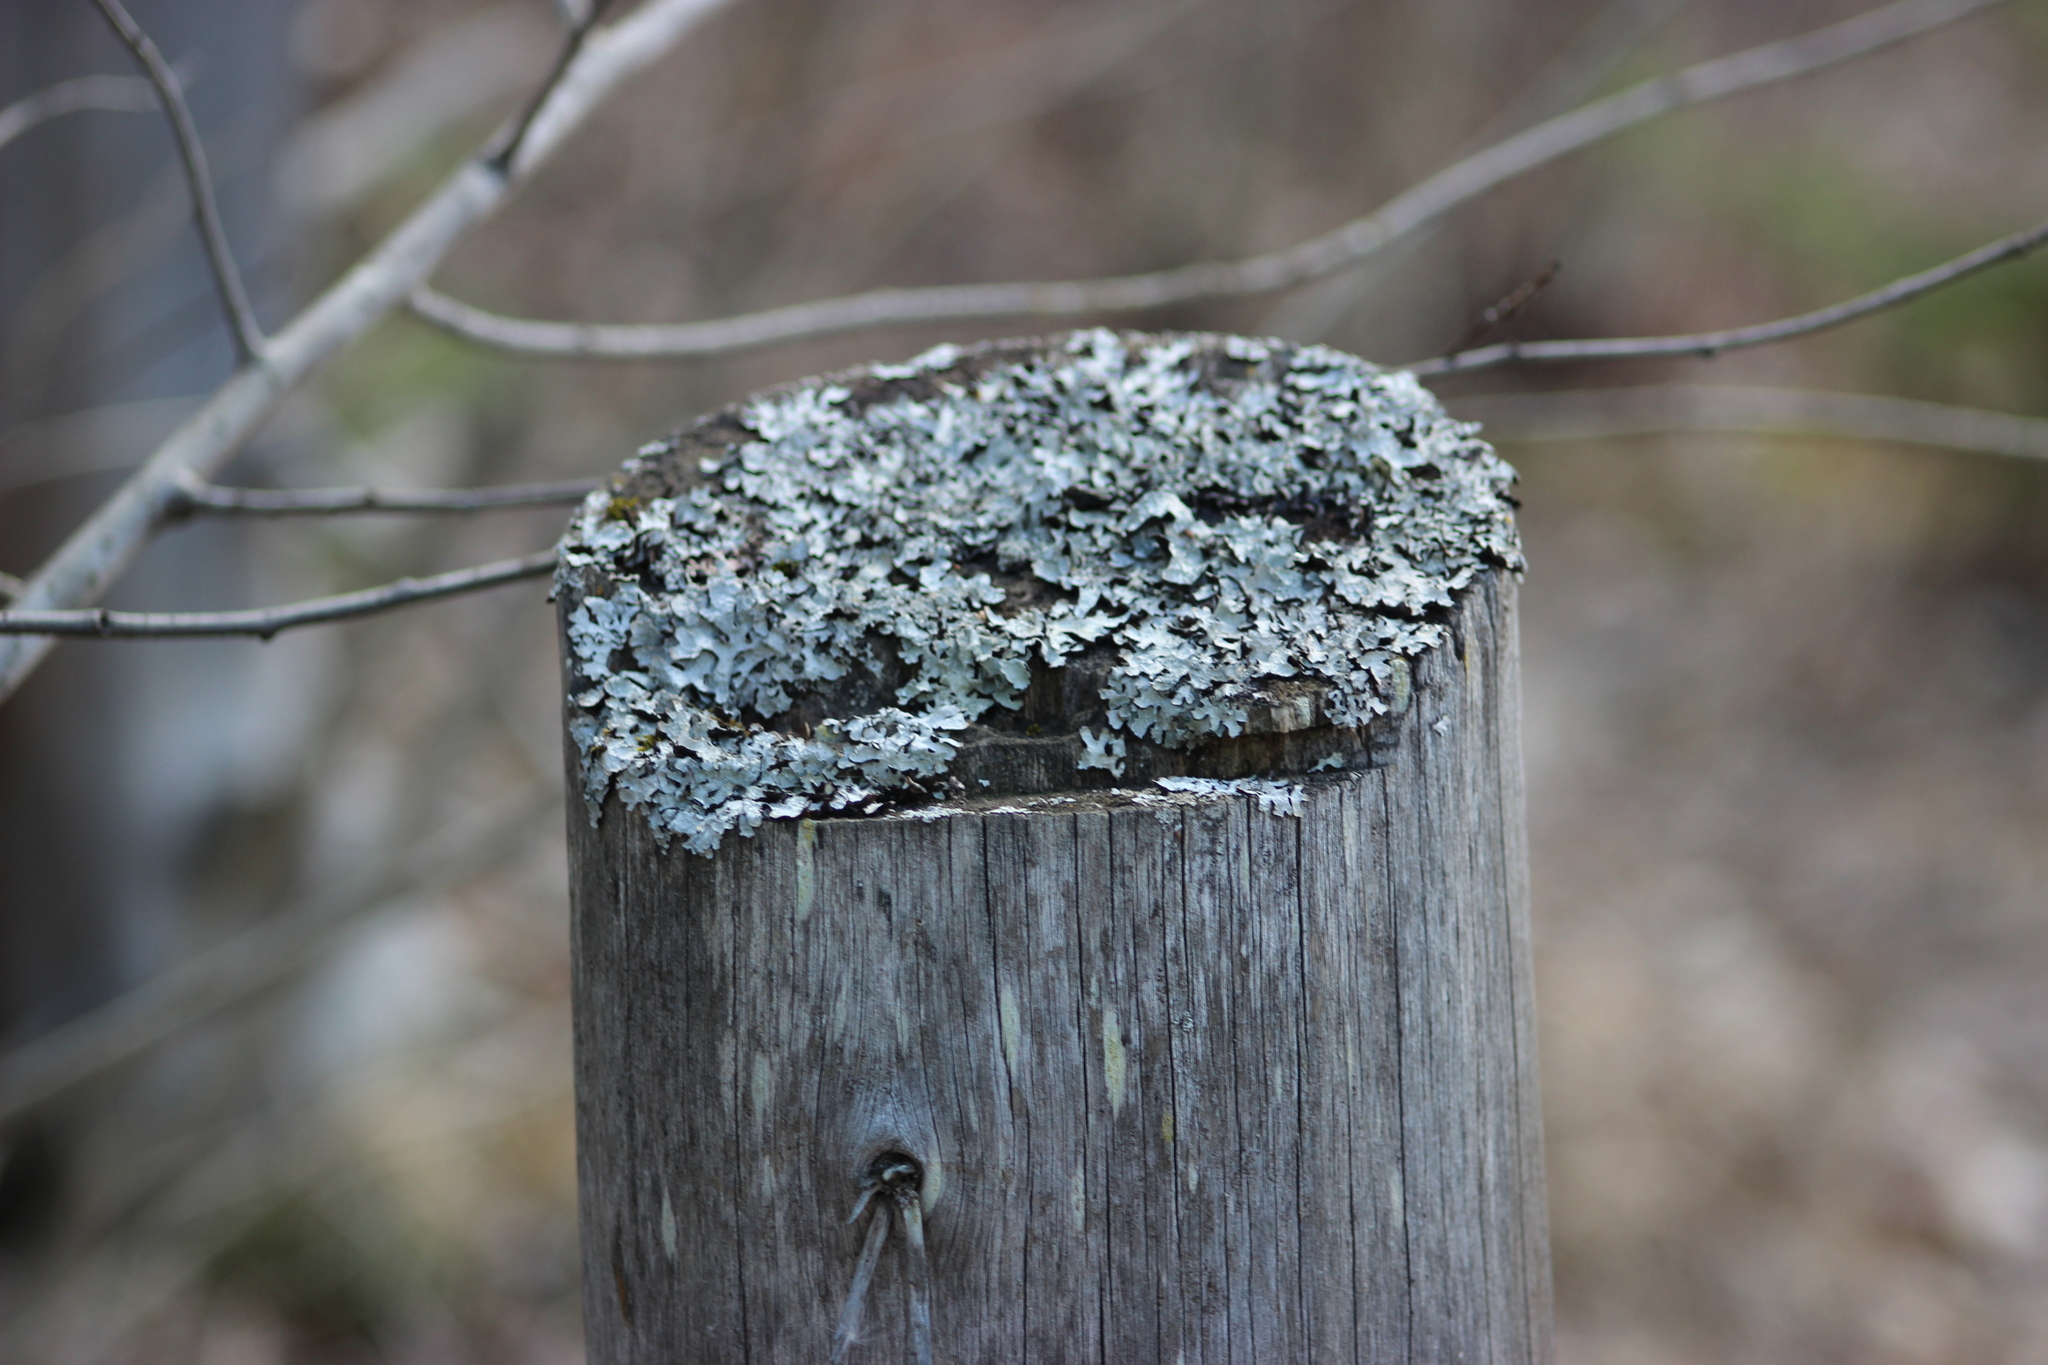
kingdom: Fungi
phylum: Ascomycota
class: Lecanoromycetes
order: Lecanorales
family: Parmeliaceae
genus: Parmelia
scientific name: Parmelia sulcata
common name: Netted shield lichen
